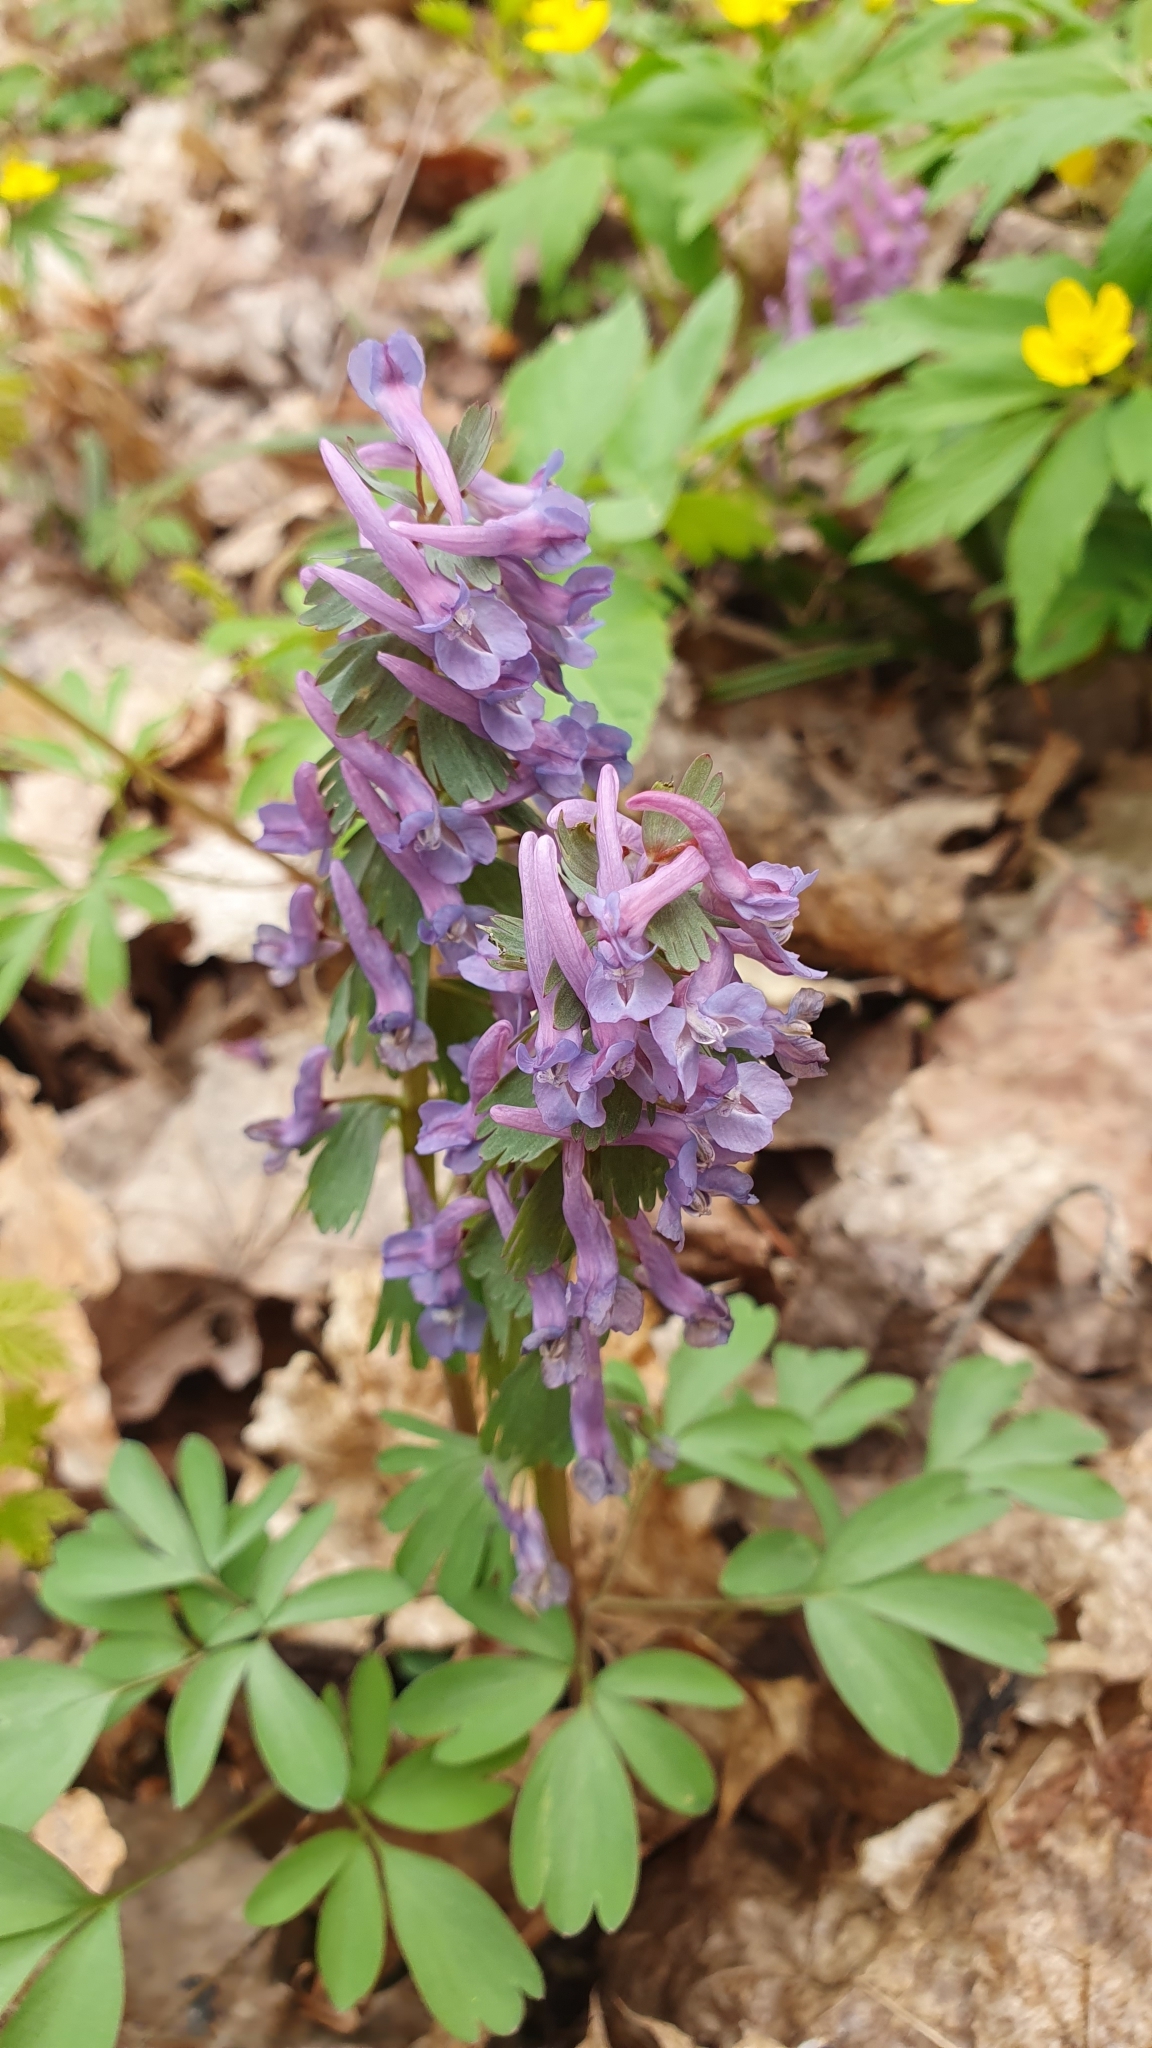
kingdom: Plantae
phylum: Tracheophyta
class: Magnoliopsida
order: Ranunculales
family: Papaveraceae
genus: Corydalis
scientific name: Corydalis solida
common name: Bird-in-a-bush
